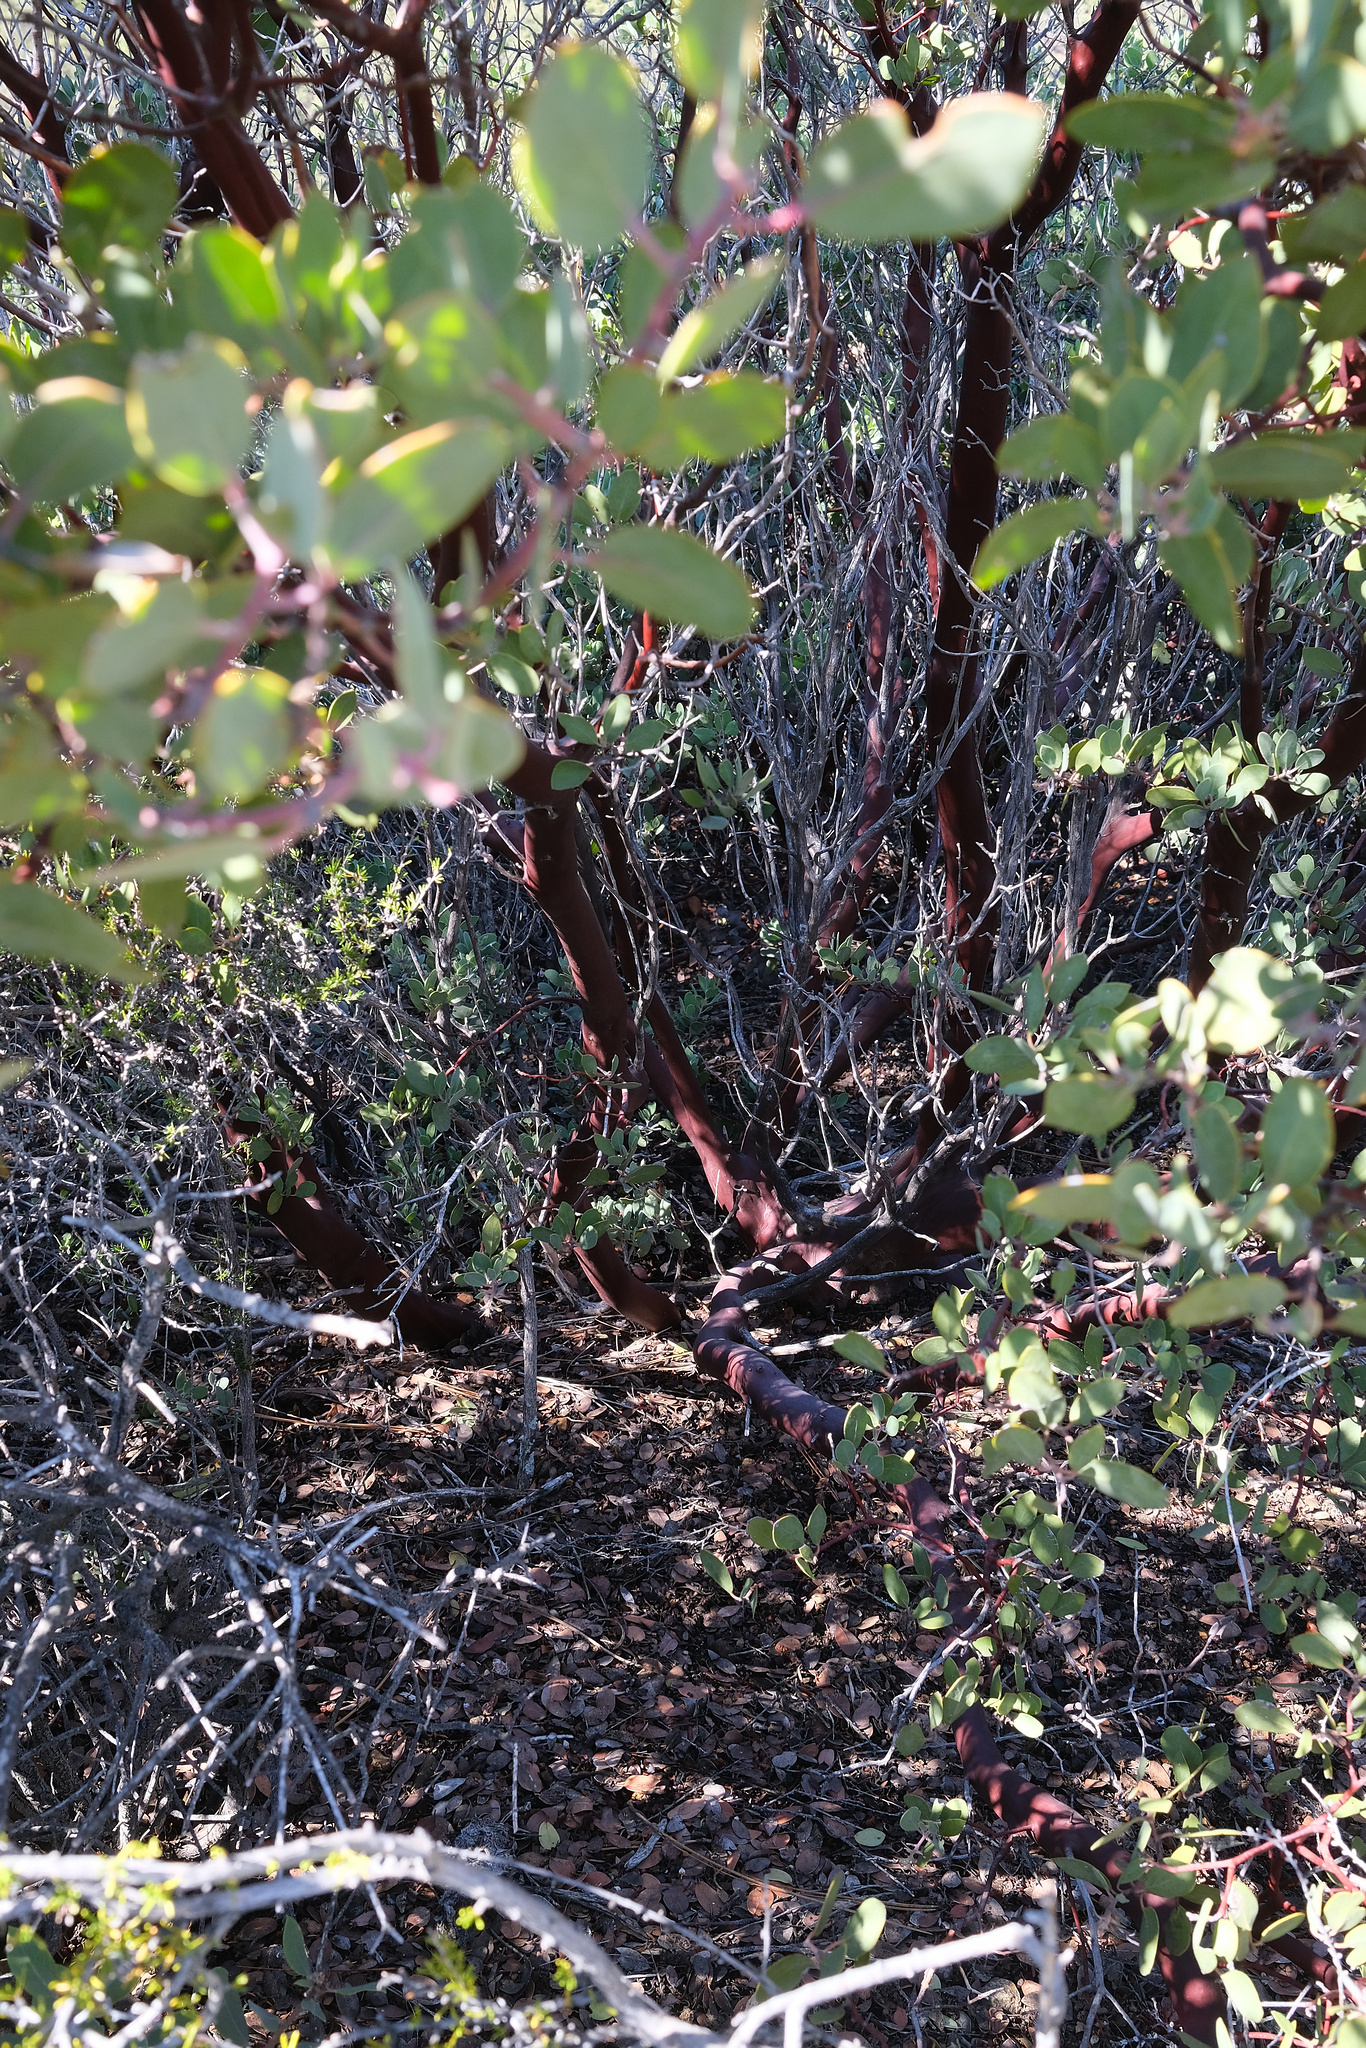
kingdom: Plantae
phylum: Tracheophyta
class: Magnoliopsida
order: Ericales
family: Ericaceae
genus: Arctostaphylos
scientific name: Arctostaphylos obispoensis
